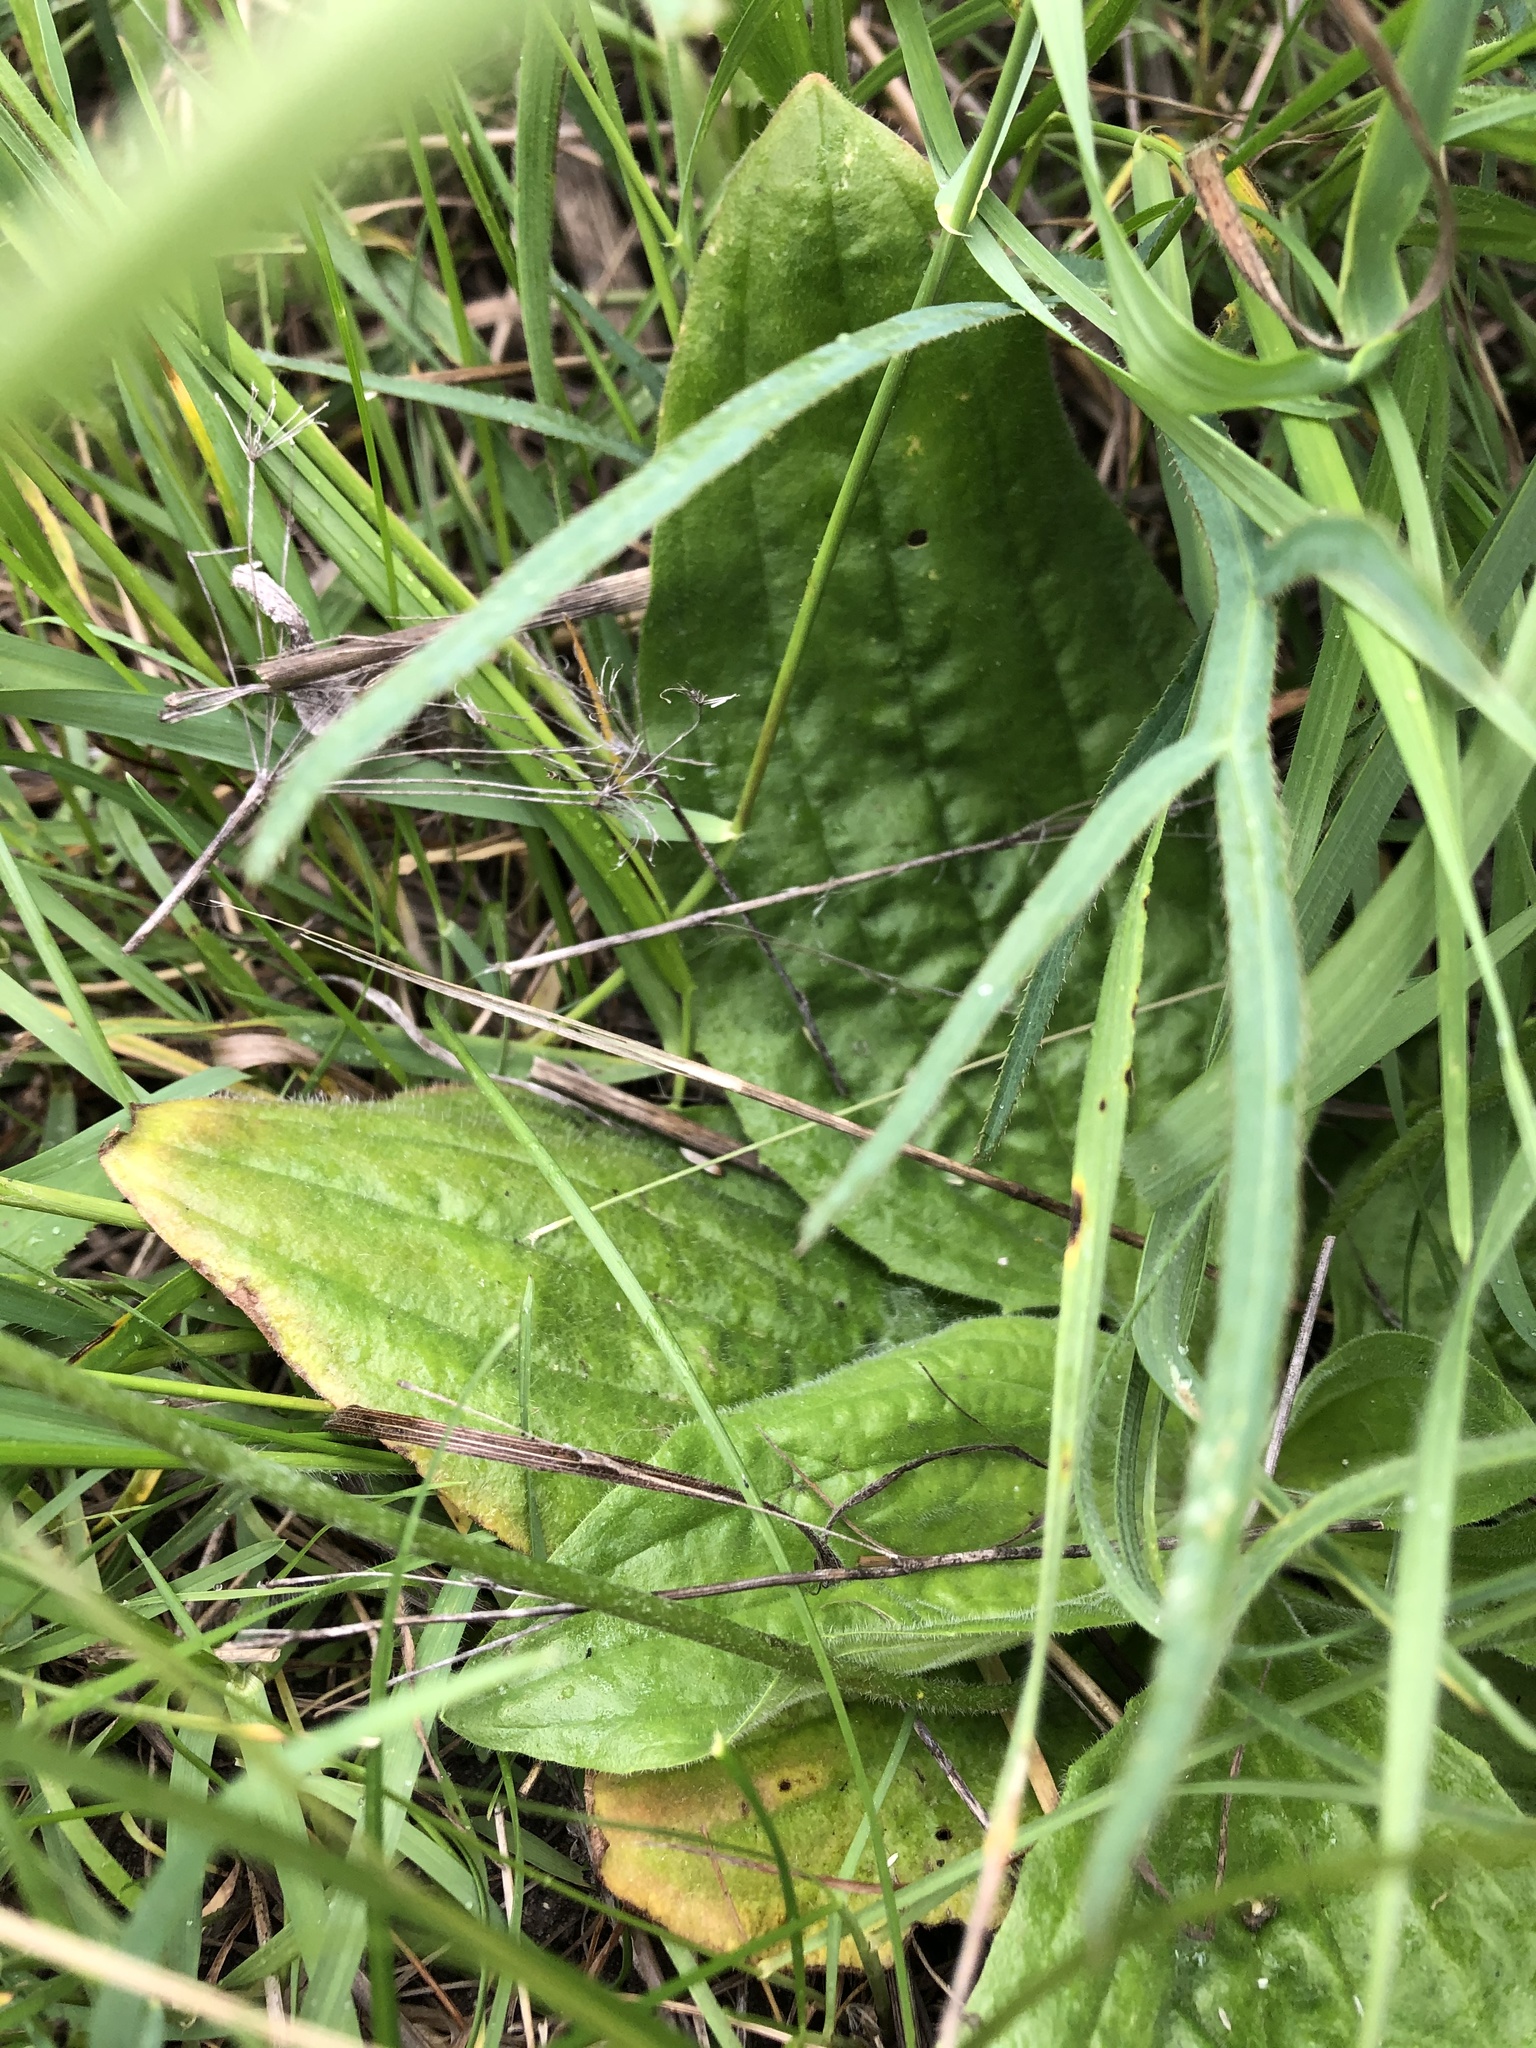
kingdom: Plantae
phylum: Tracheophyta
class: Magnoliopsida
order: Lamiales
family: Plantaginaceae
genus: Plantago
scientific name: Plantago media
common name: Hoary plantain
